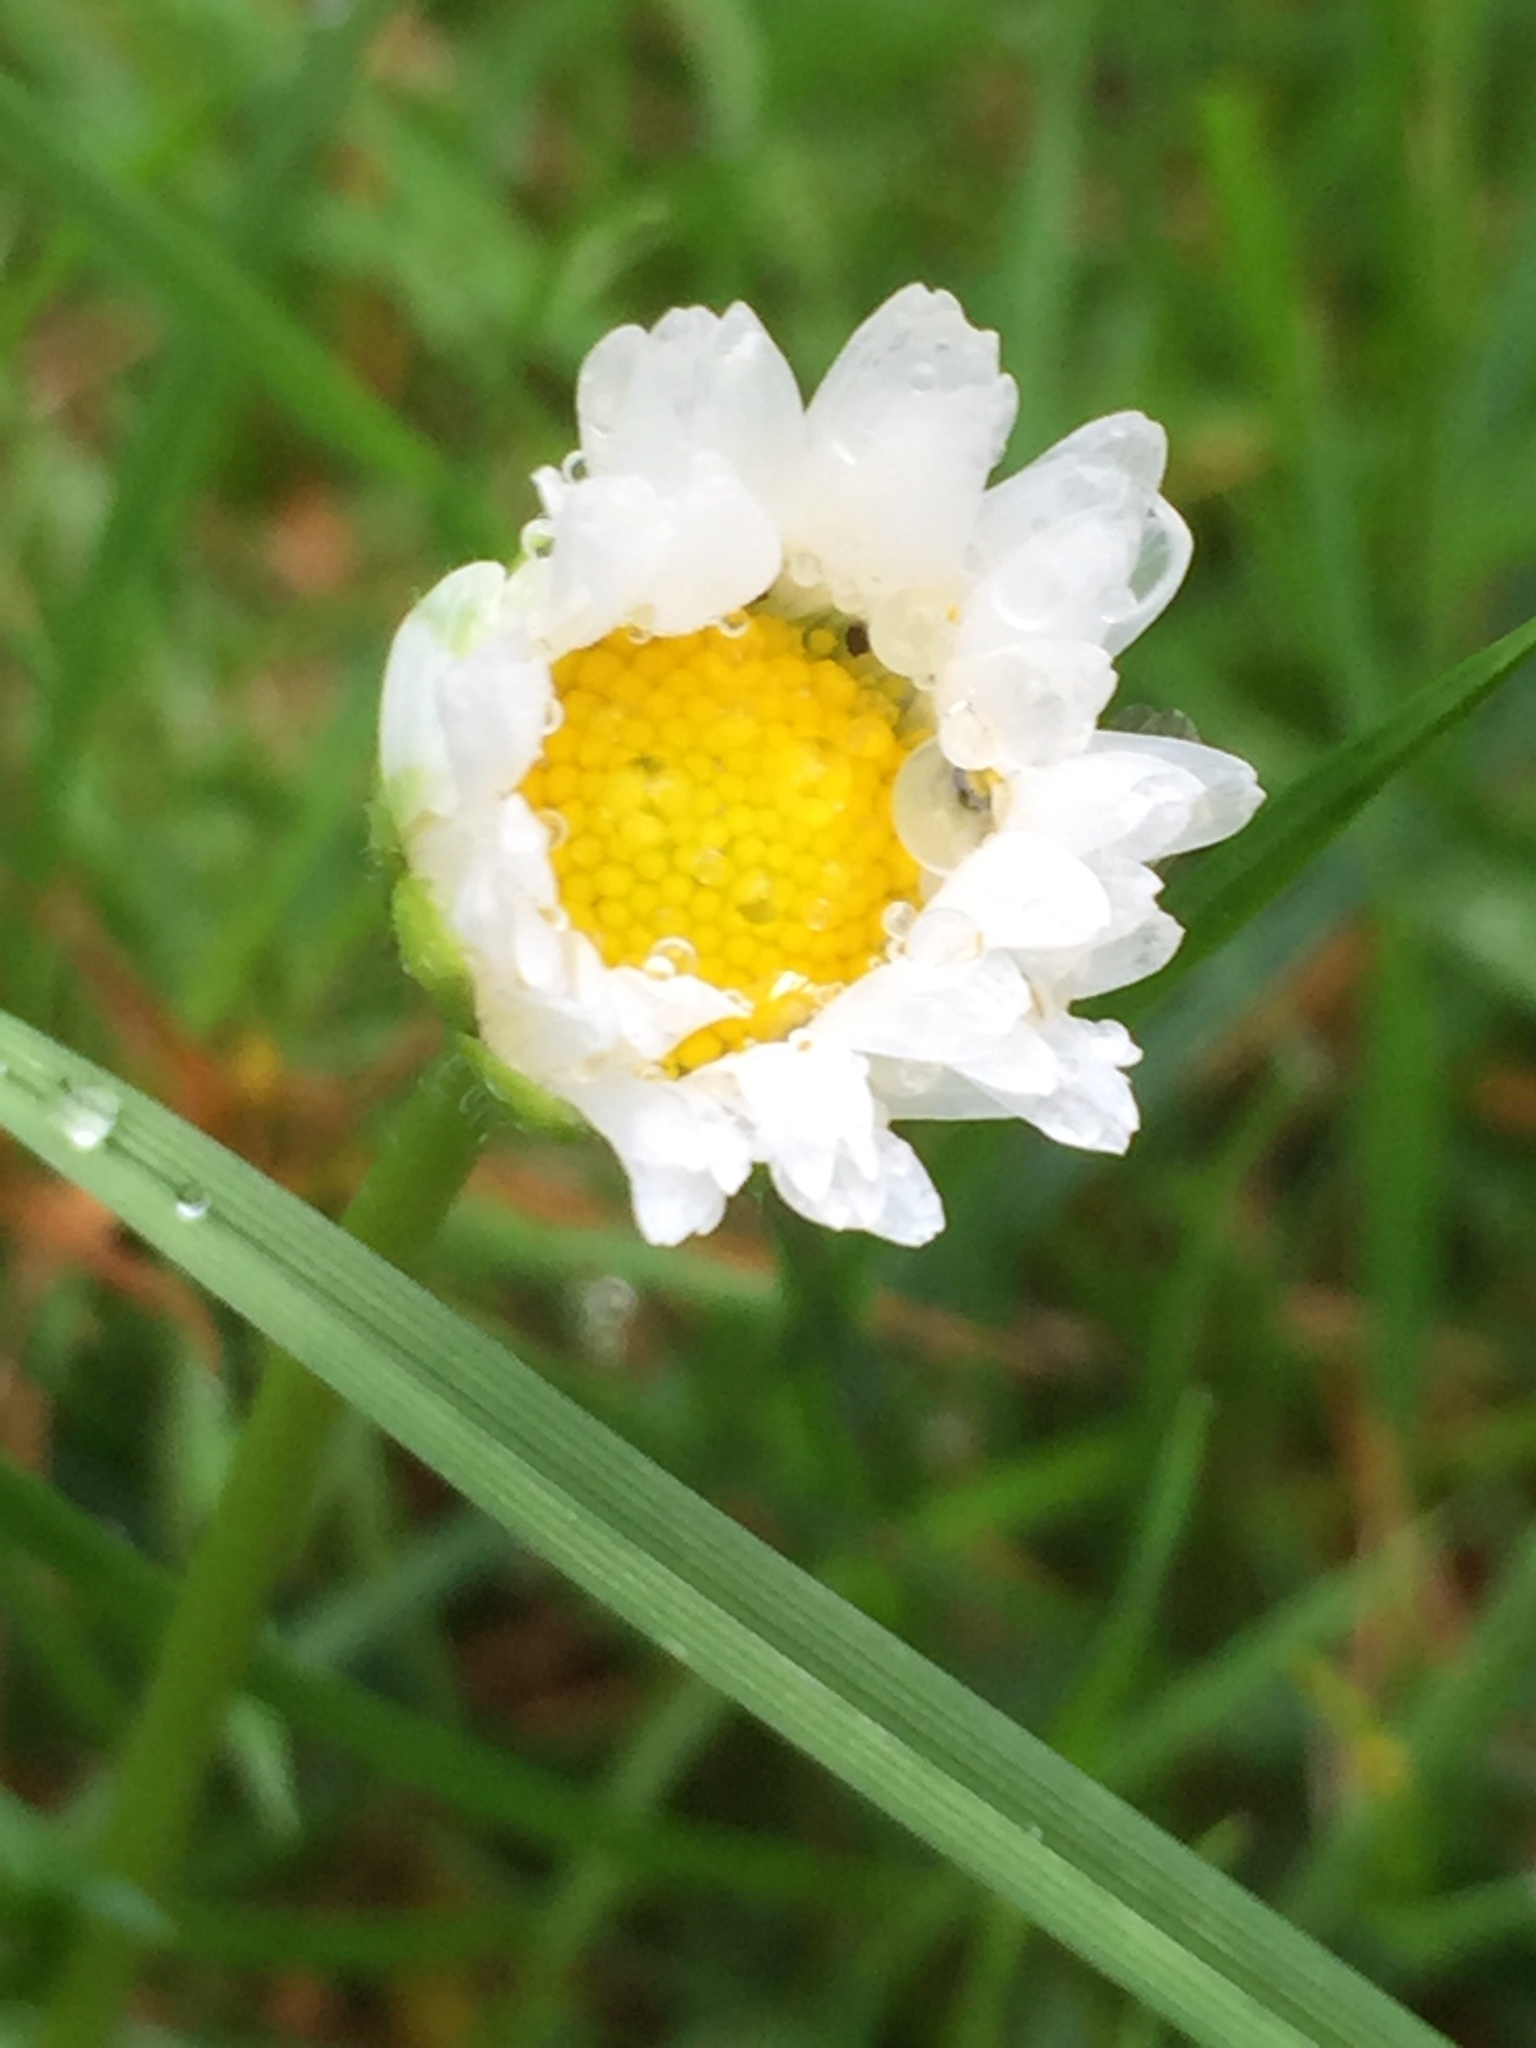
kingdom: Plantae
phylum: Tracheophyta
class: Magnoliopsida
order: Asterales
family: Asteraceae
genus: Bellis
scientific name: Bellis perennis
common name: Lawndaisy
